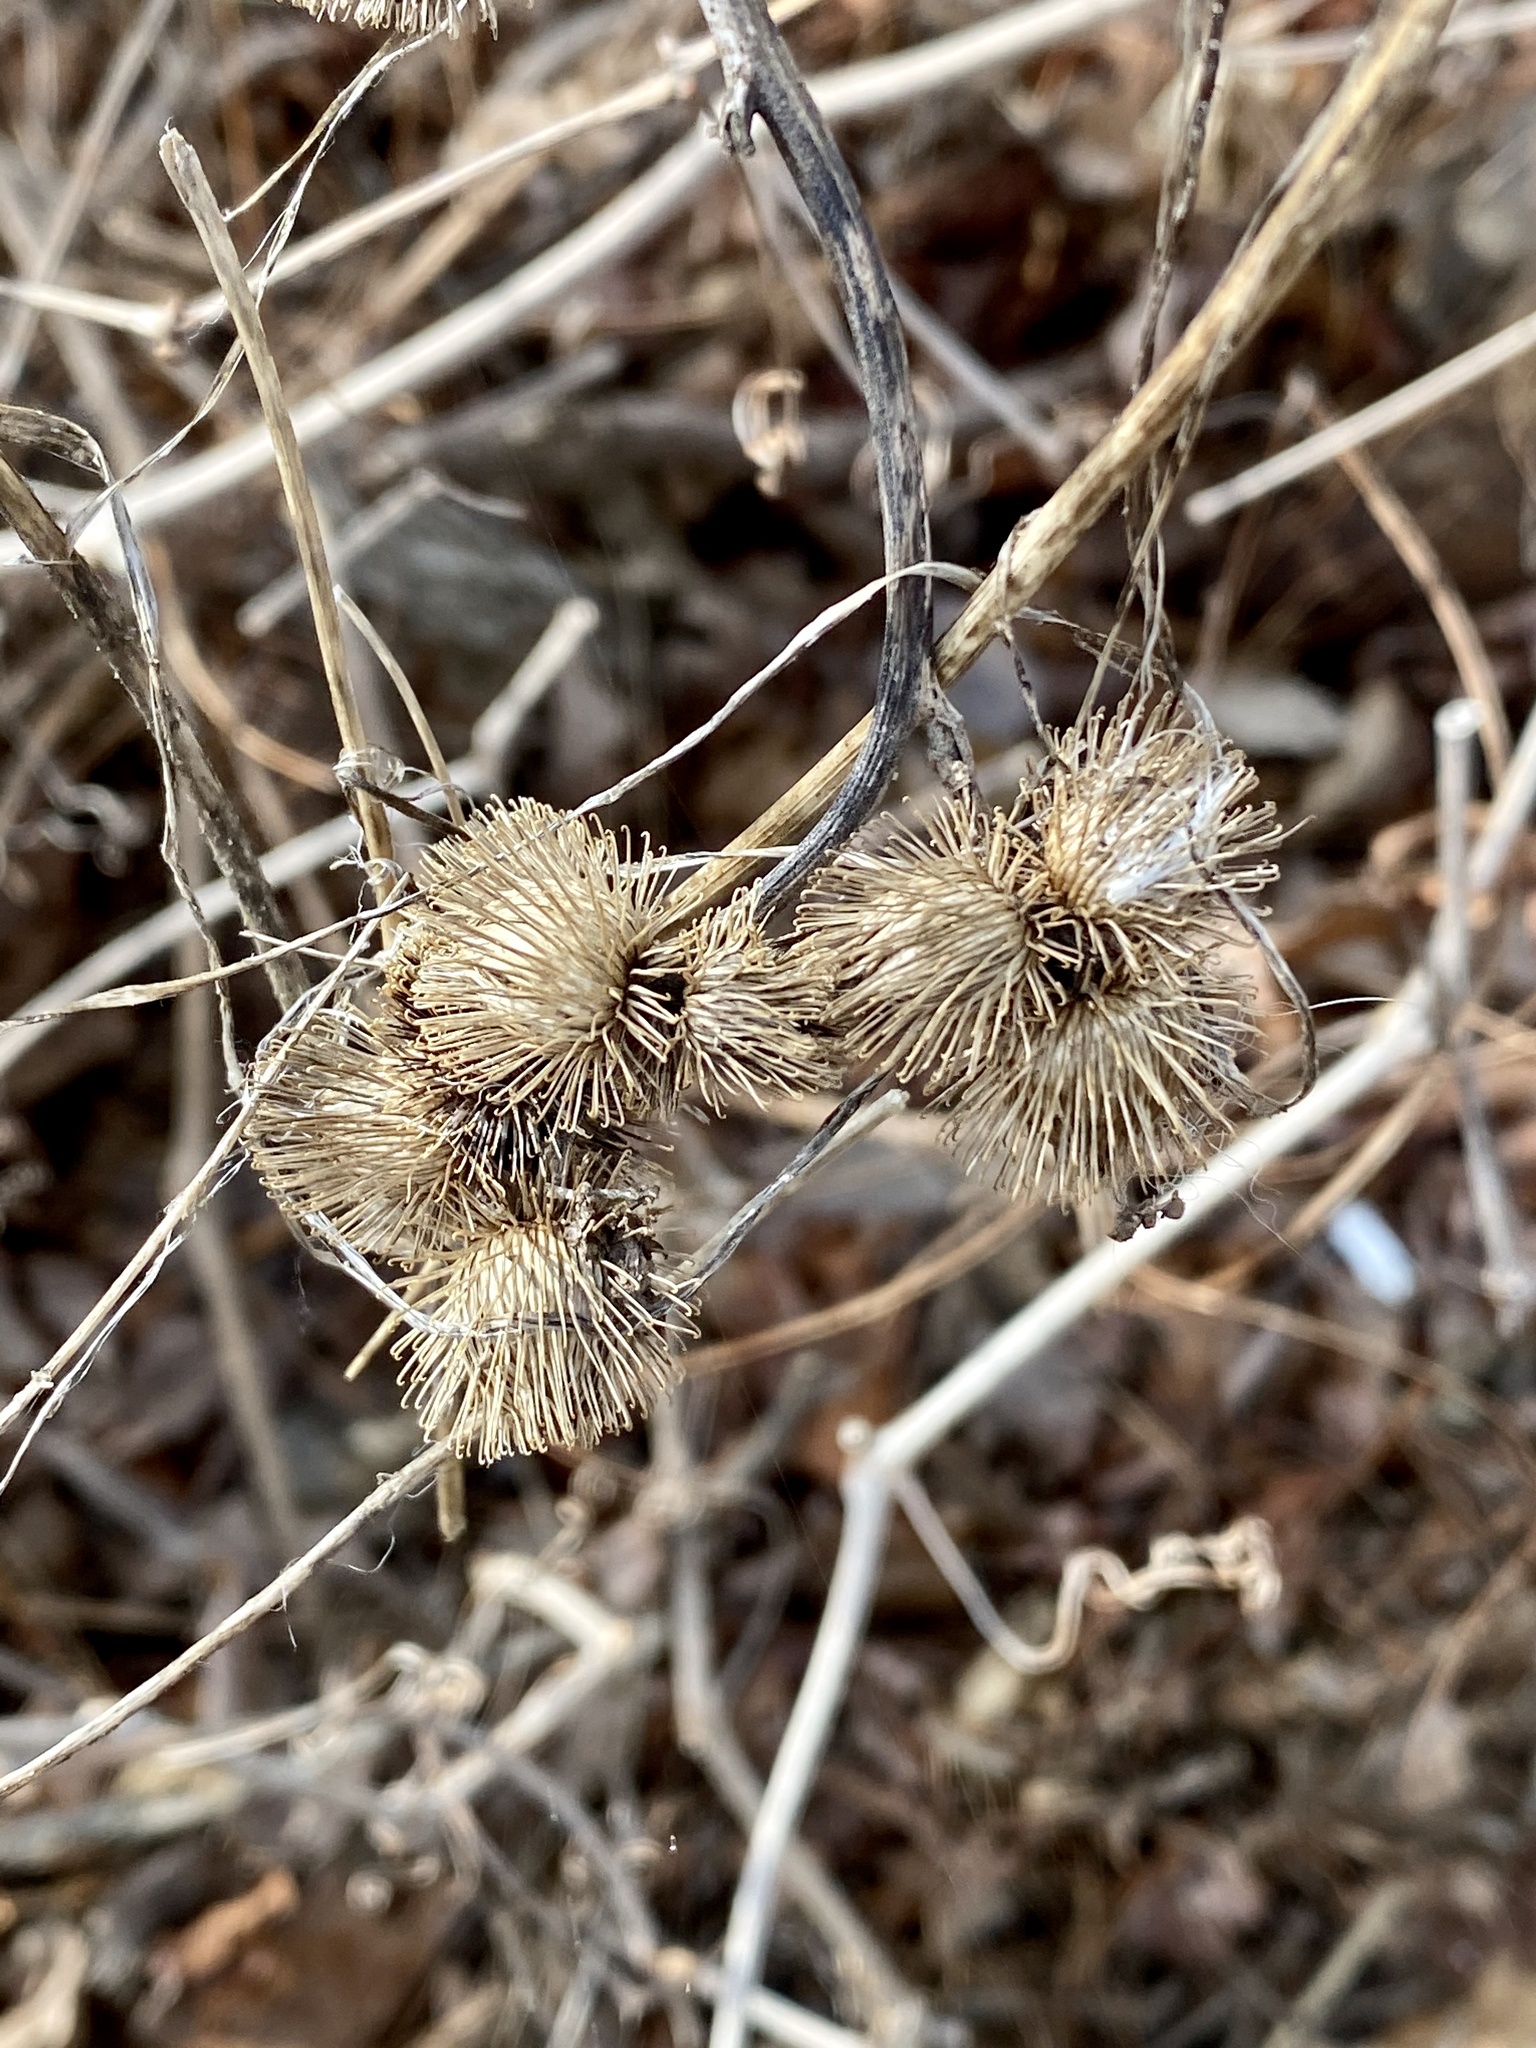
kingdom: Plantae
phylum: Tracheophyta
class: Magnoliopsida
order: Asterales
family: Asteraceae
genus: Arctium
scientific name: Arctium minus
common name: Lesser burdock
